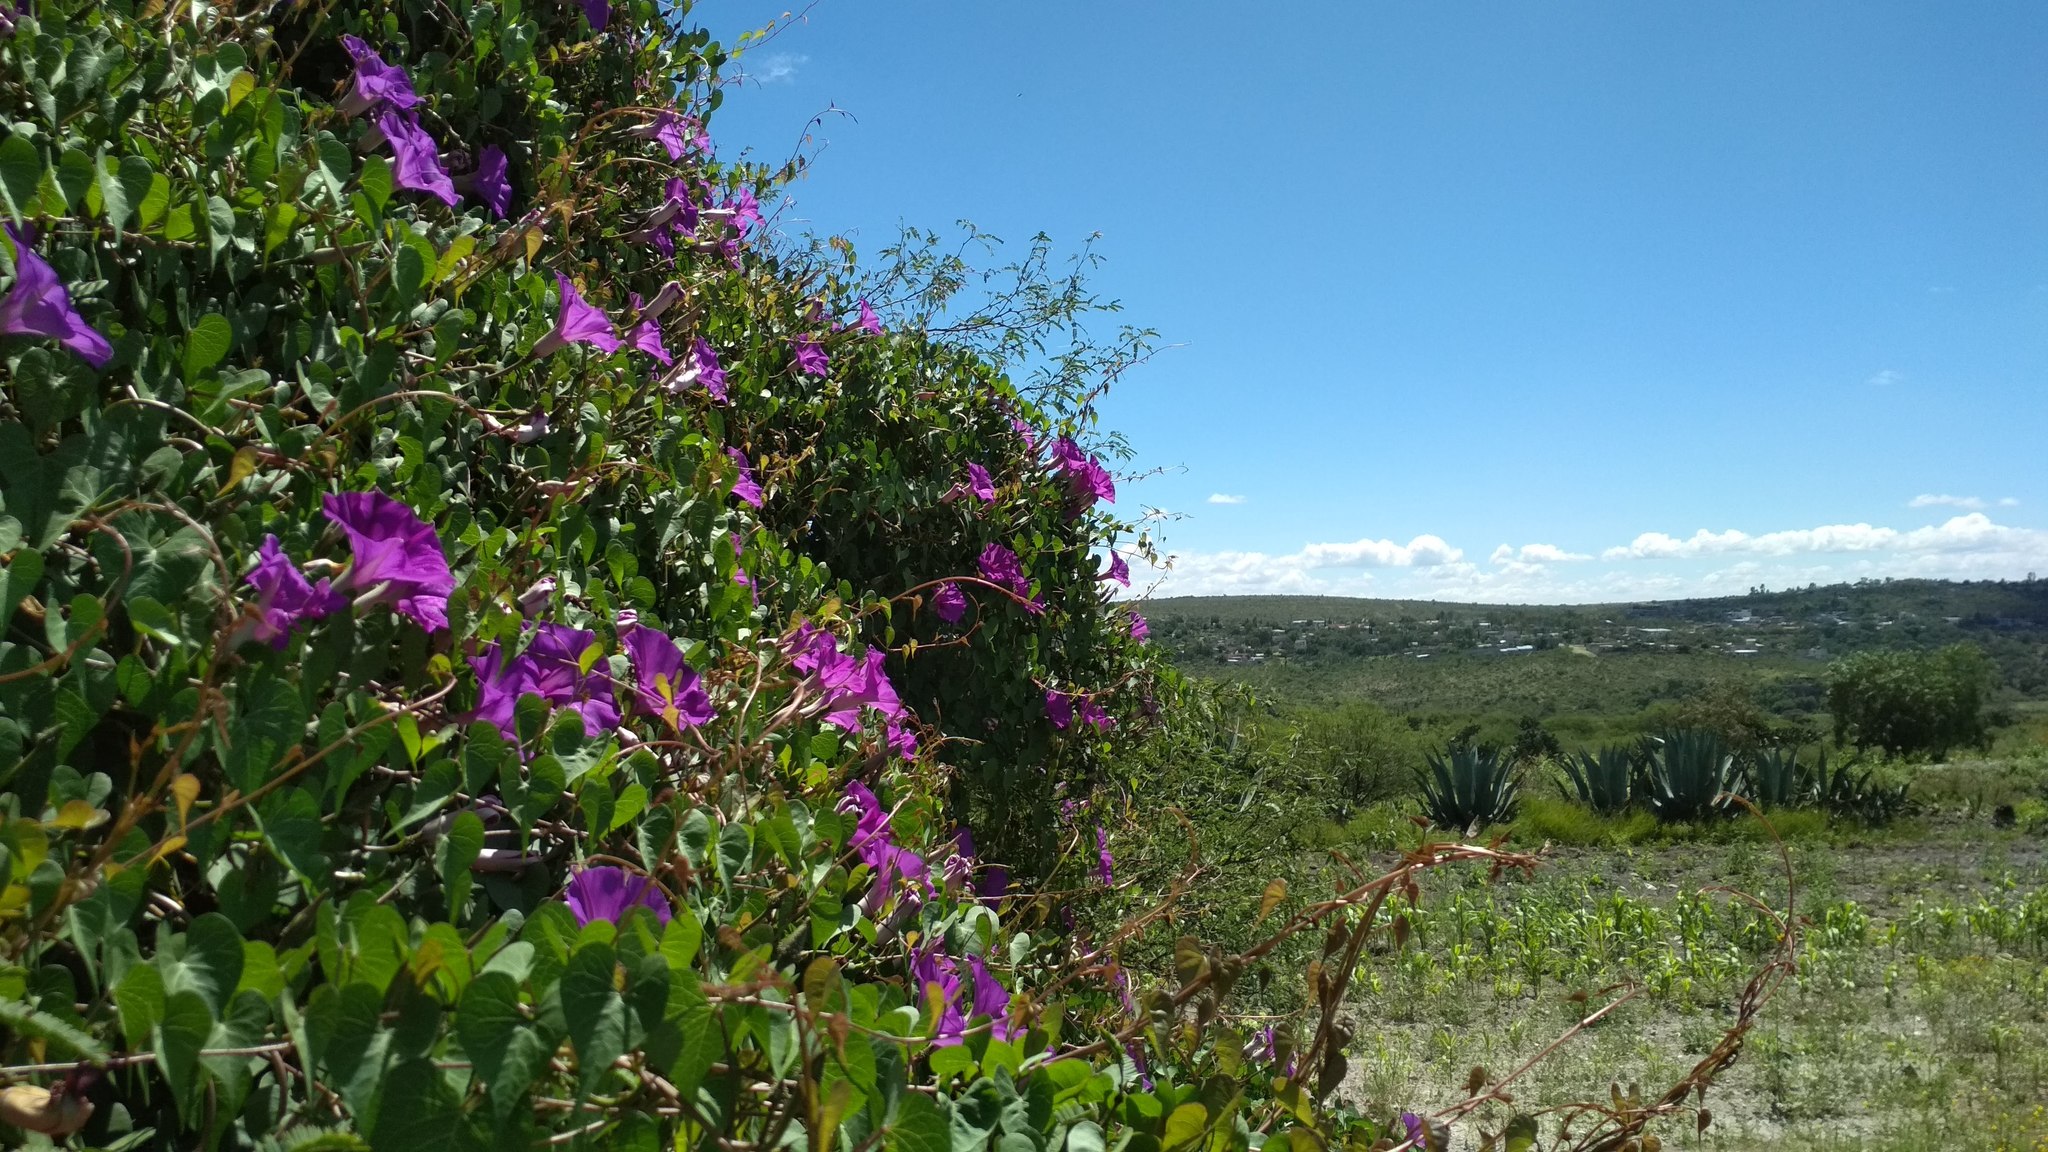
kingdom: Plantae
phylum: Tracheophyta
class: Magnoliopsida
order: Solanales
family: Convolvulaceae
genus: Ipomoea
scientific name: Ipomoea lozanii
